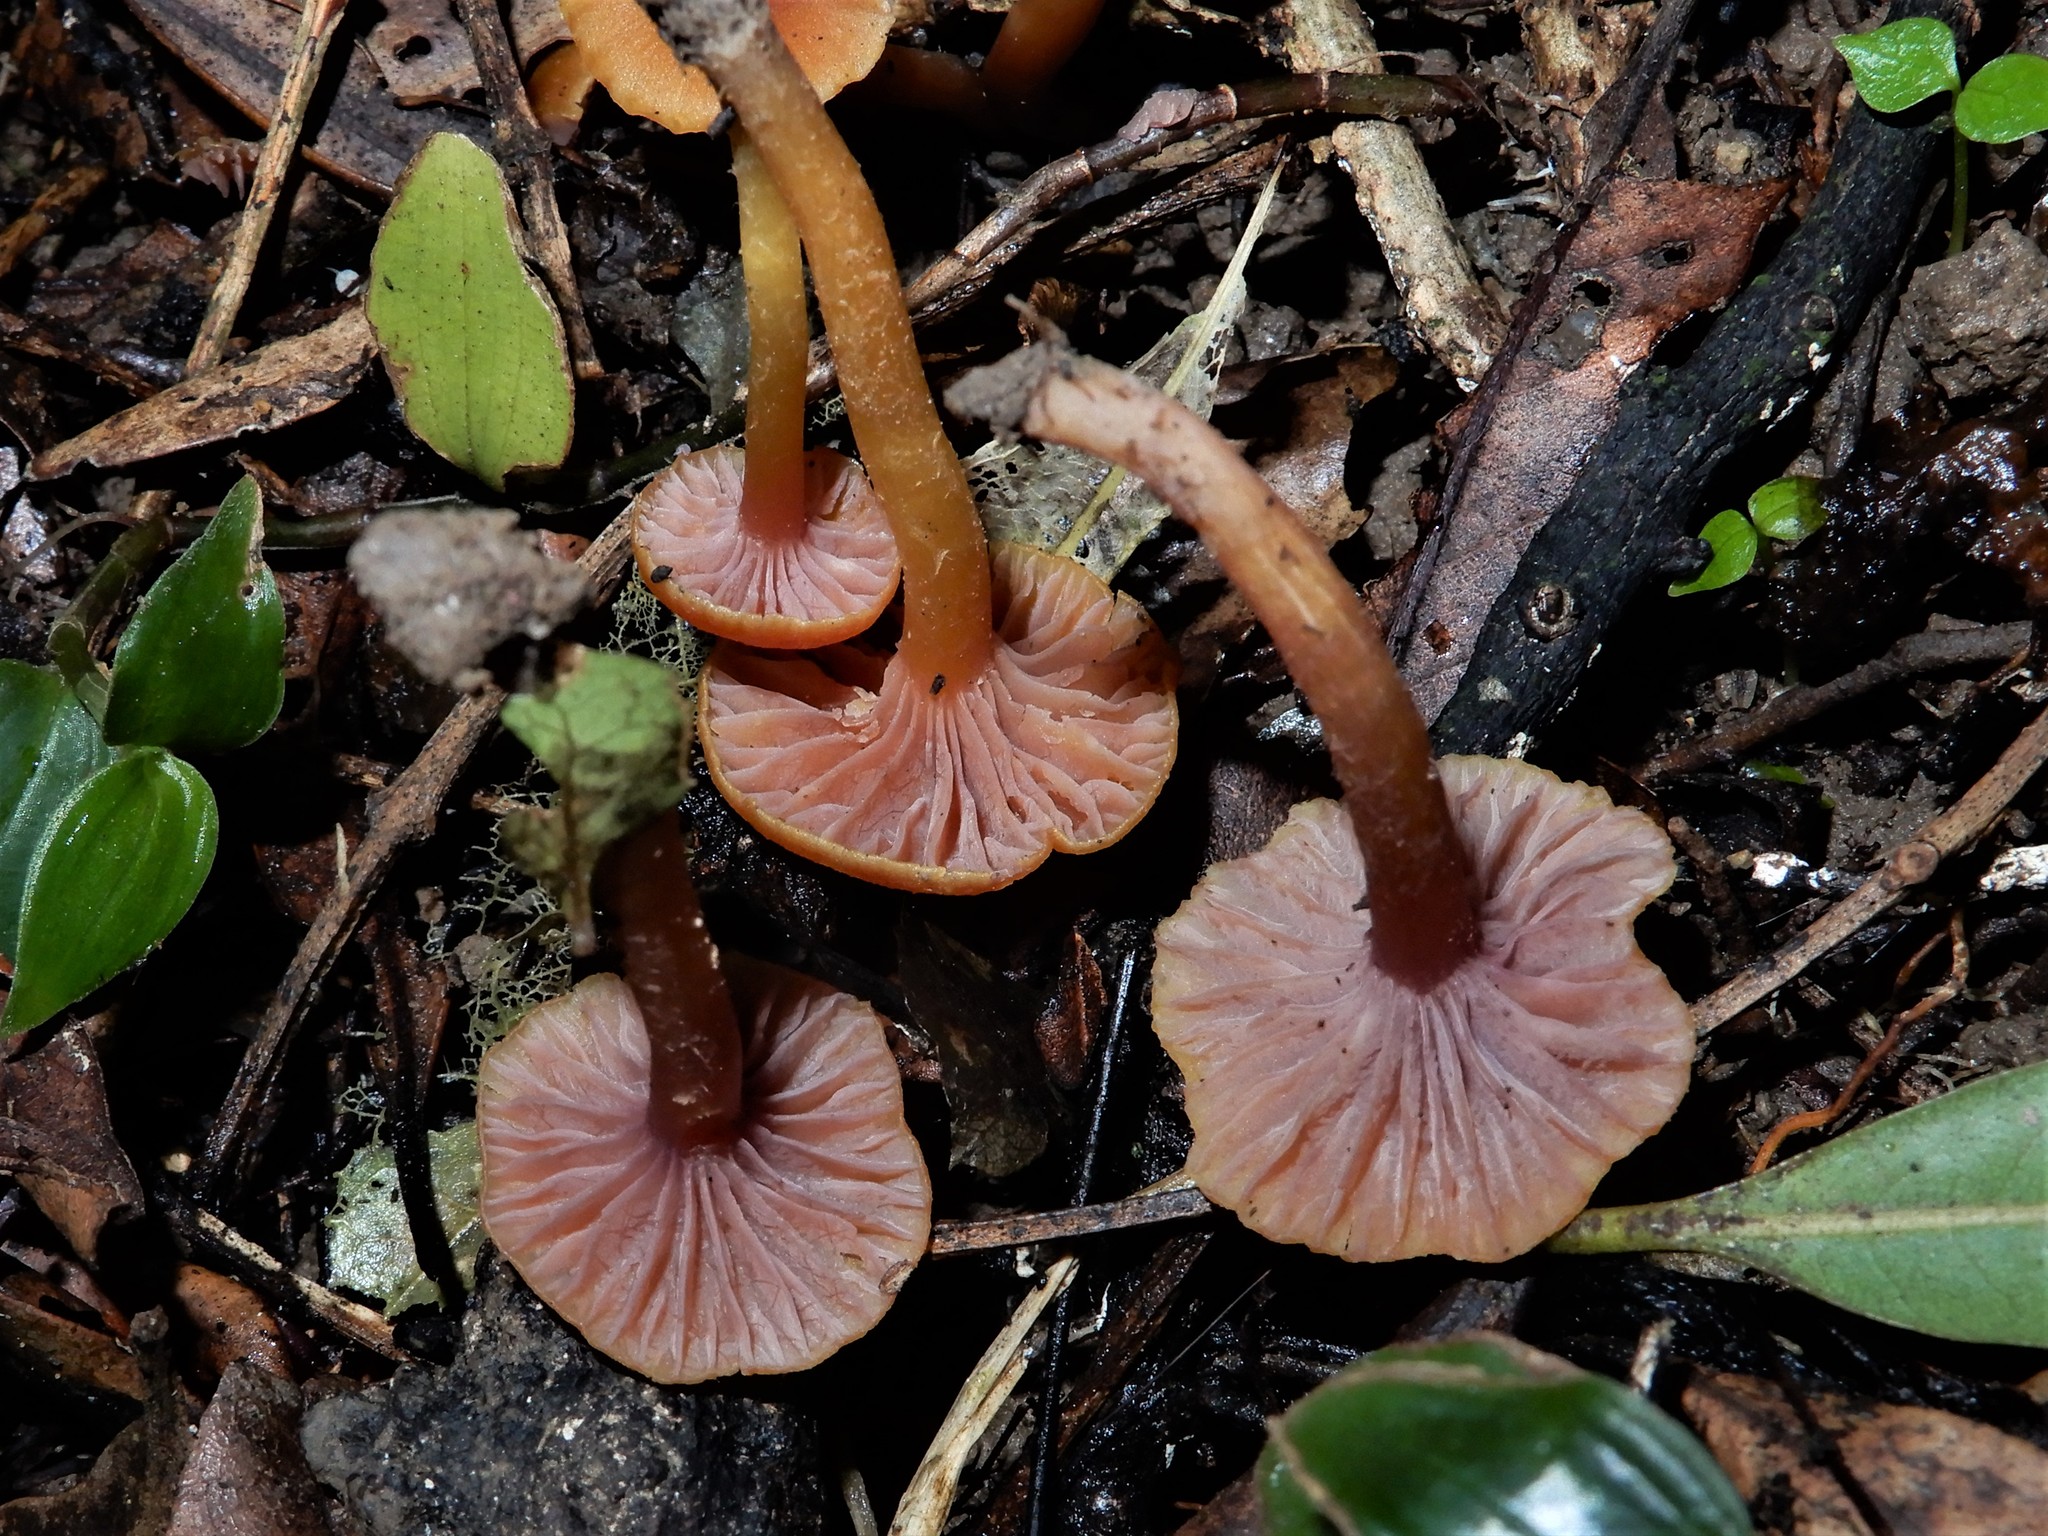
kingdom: Fungi
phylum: Basidiomycota
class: Agaricomycetes
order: Agaricales
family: Hygrophoraceae
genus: Hygrocybe
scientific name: Hygrocybe lilaceolamellata
